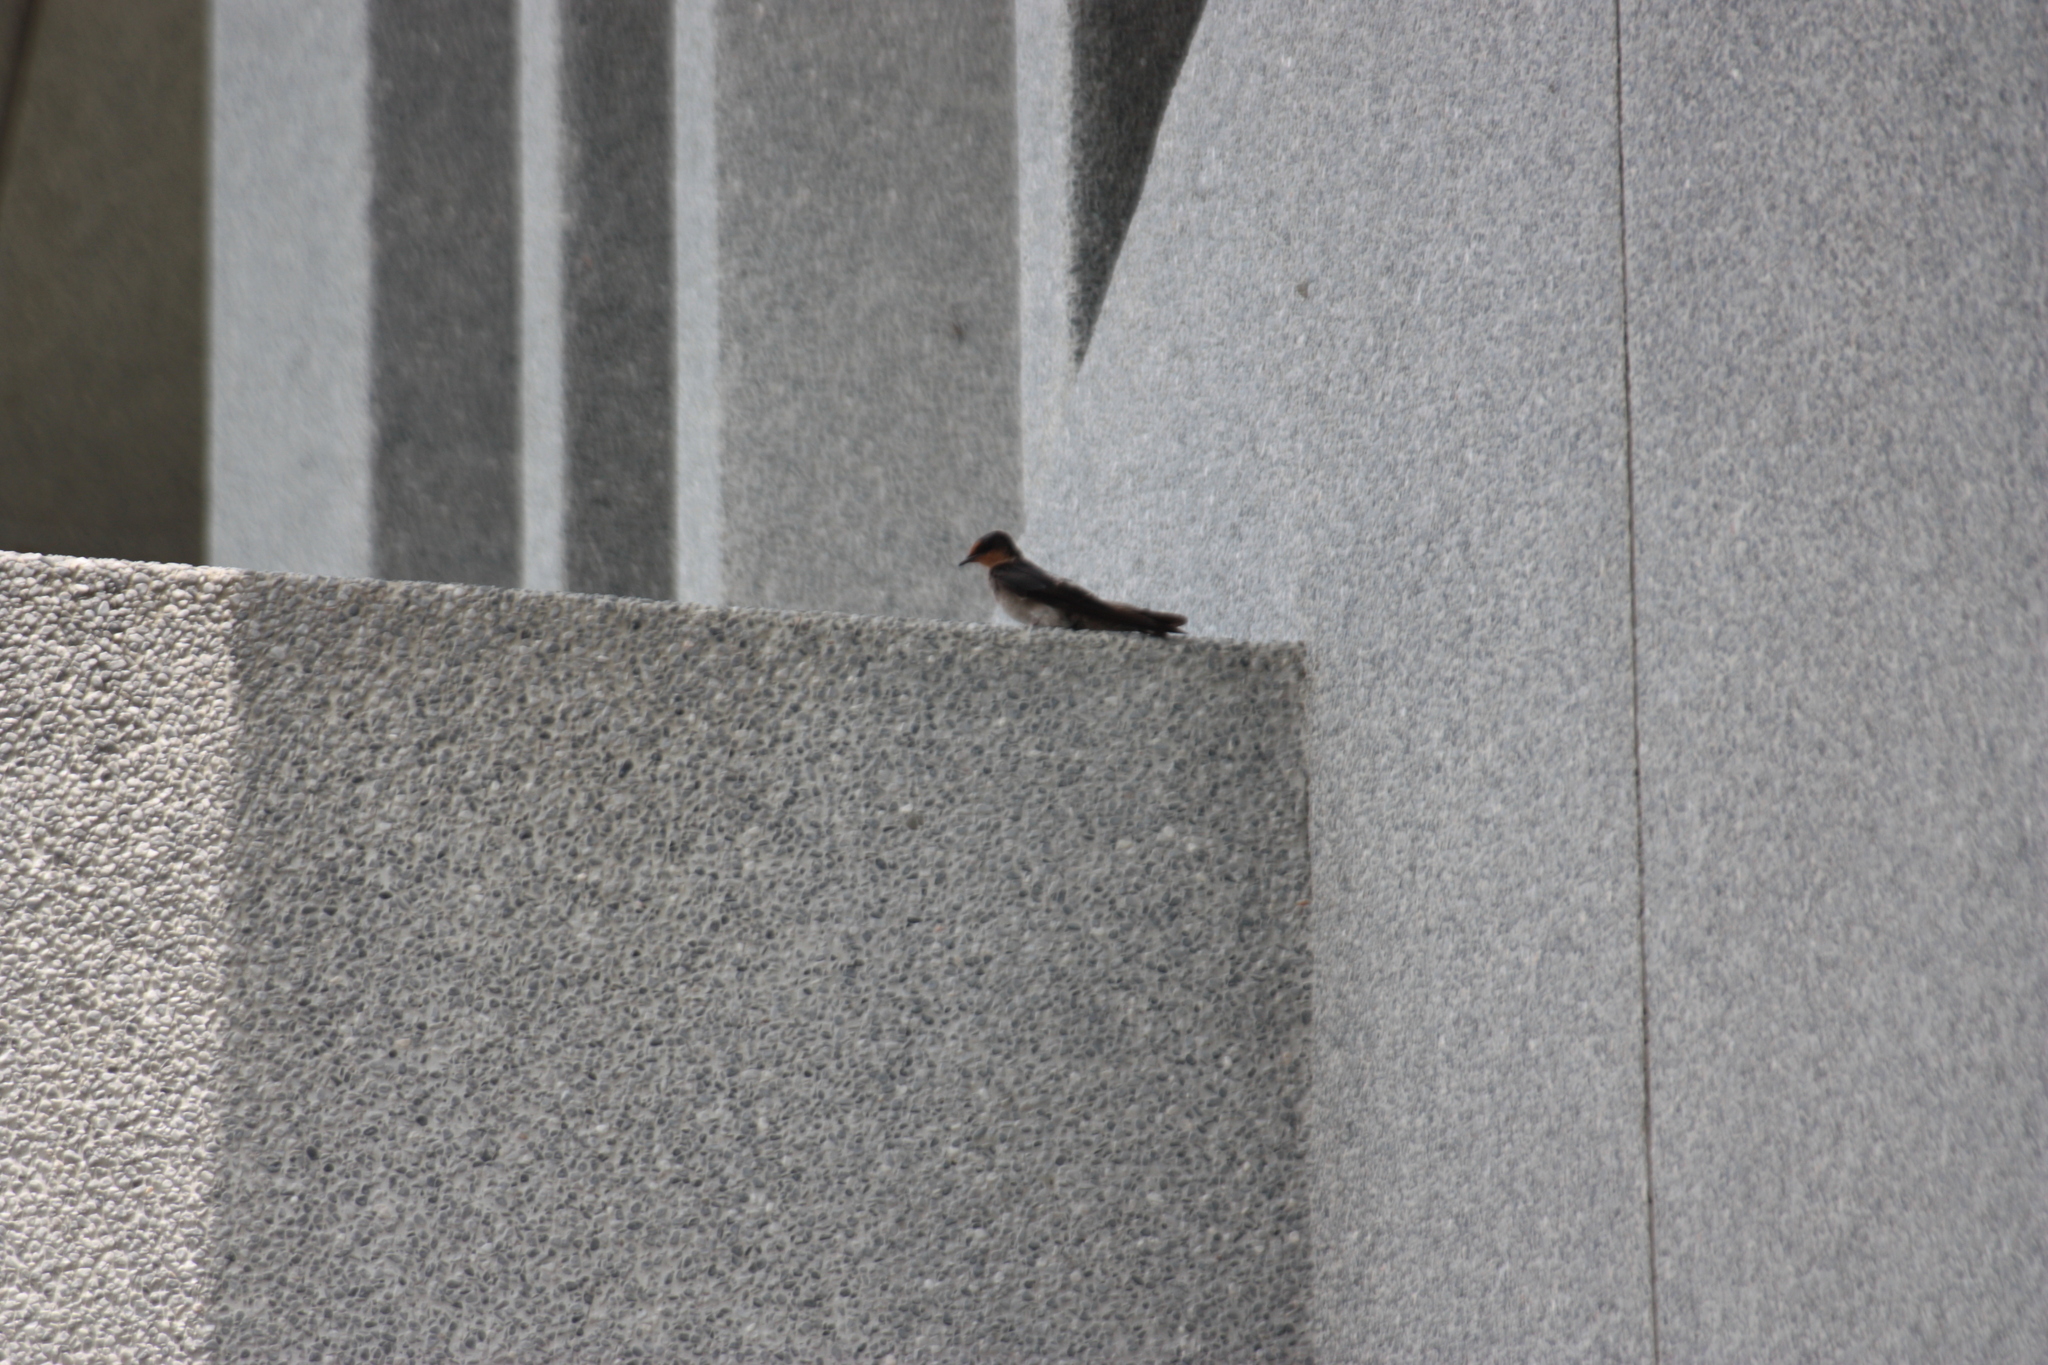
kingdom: Animalia
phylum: Chordata
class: Aves
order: Passeriformes
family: Hirundinidae
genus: Hirundo
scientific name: Hirundo tahitica
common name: Pacific swallow
